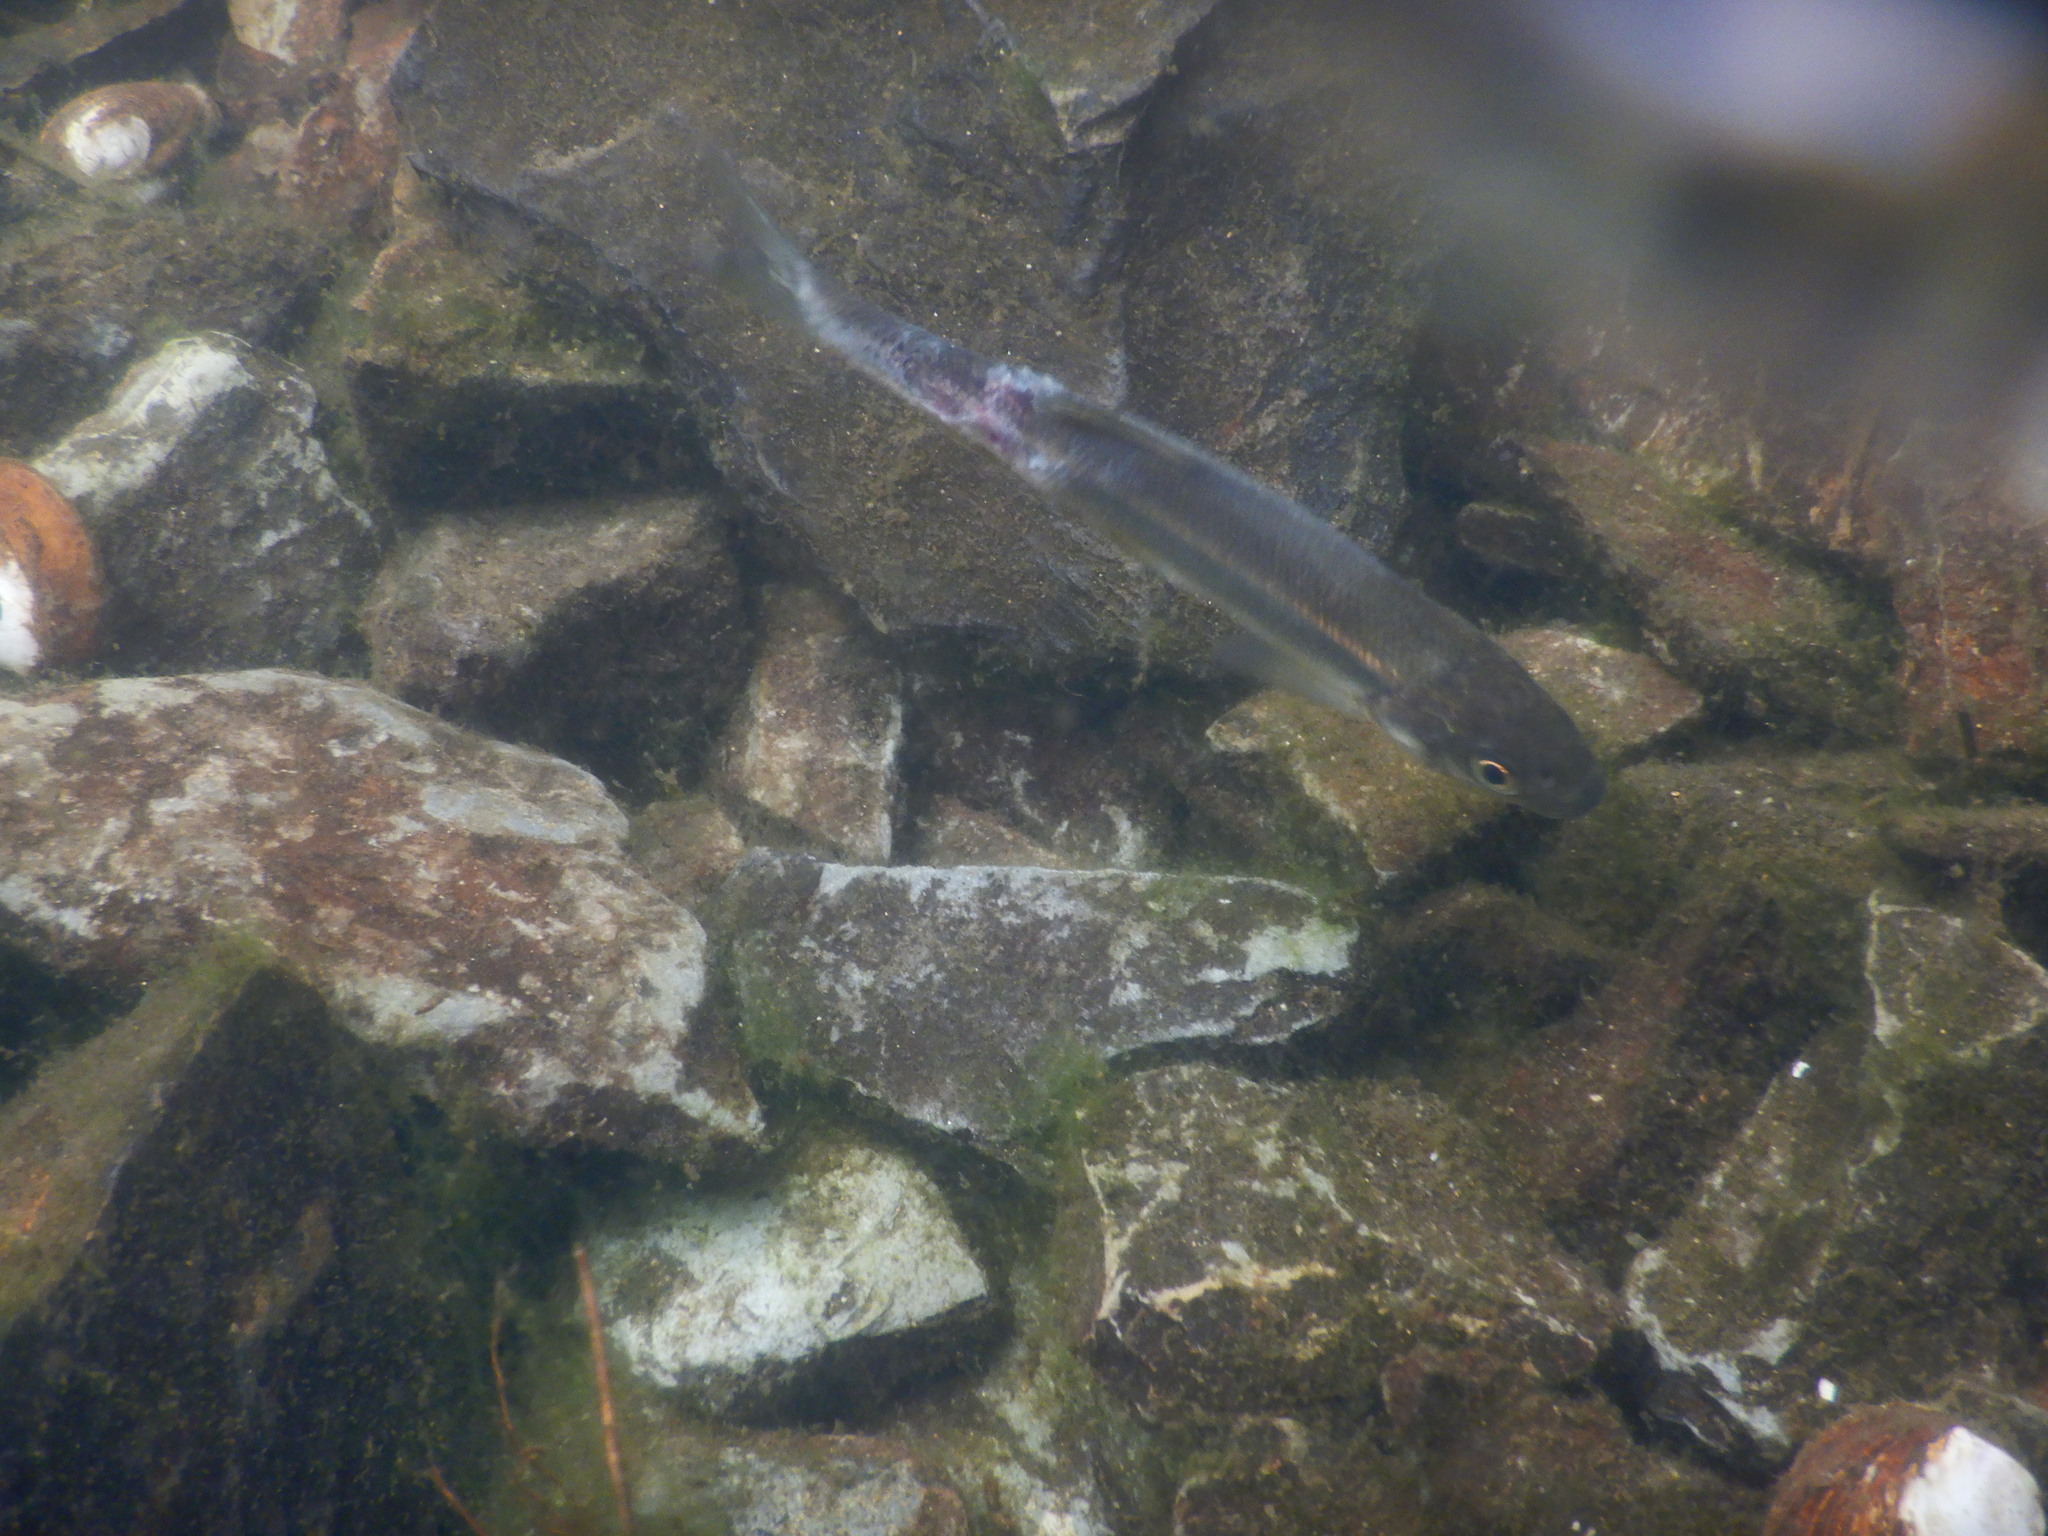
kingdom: Animalia
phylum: Chordata
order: Cypriniformes
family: Cyprinidae
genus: Pseudochondrostoma
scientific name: Pseudochondrostoma polylepis
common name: Iberian nase
